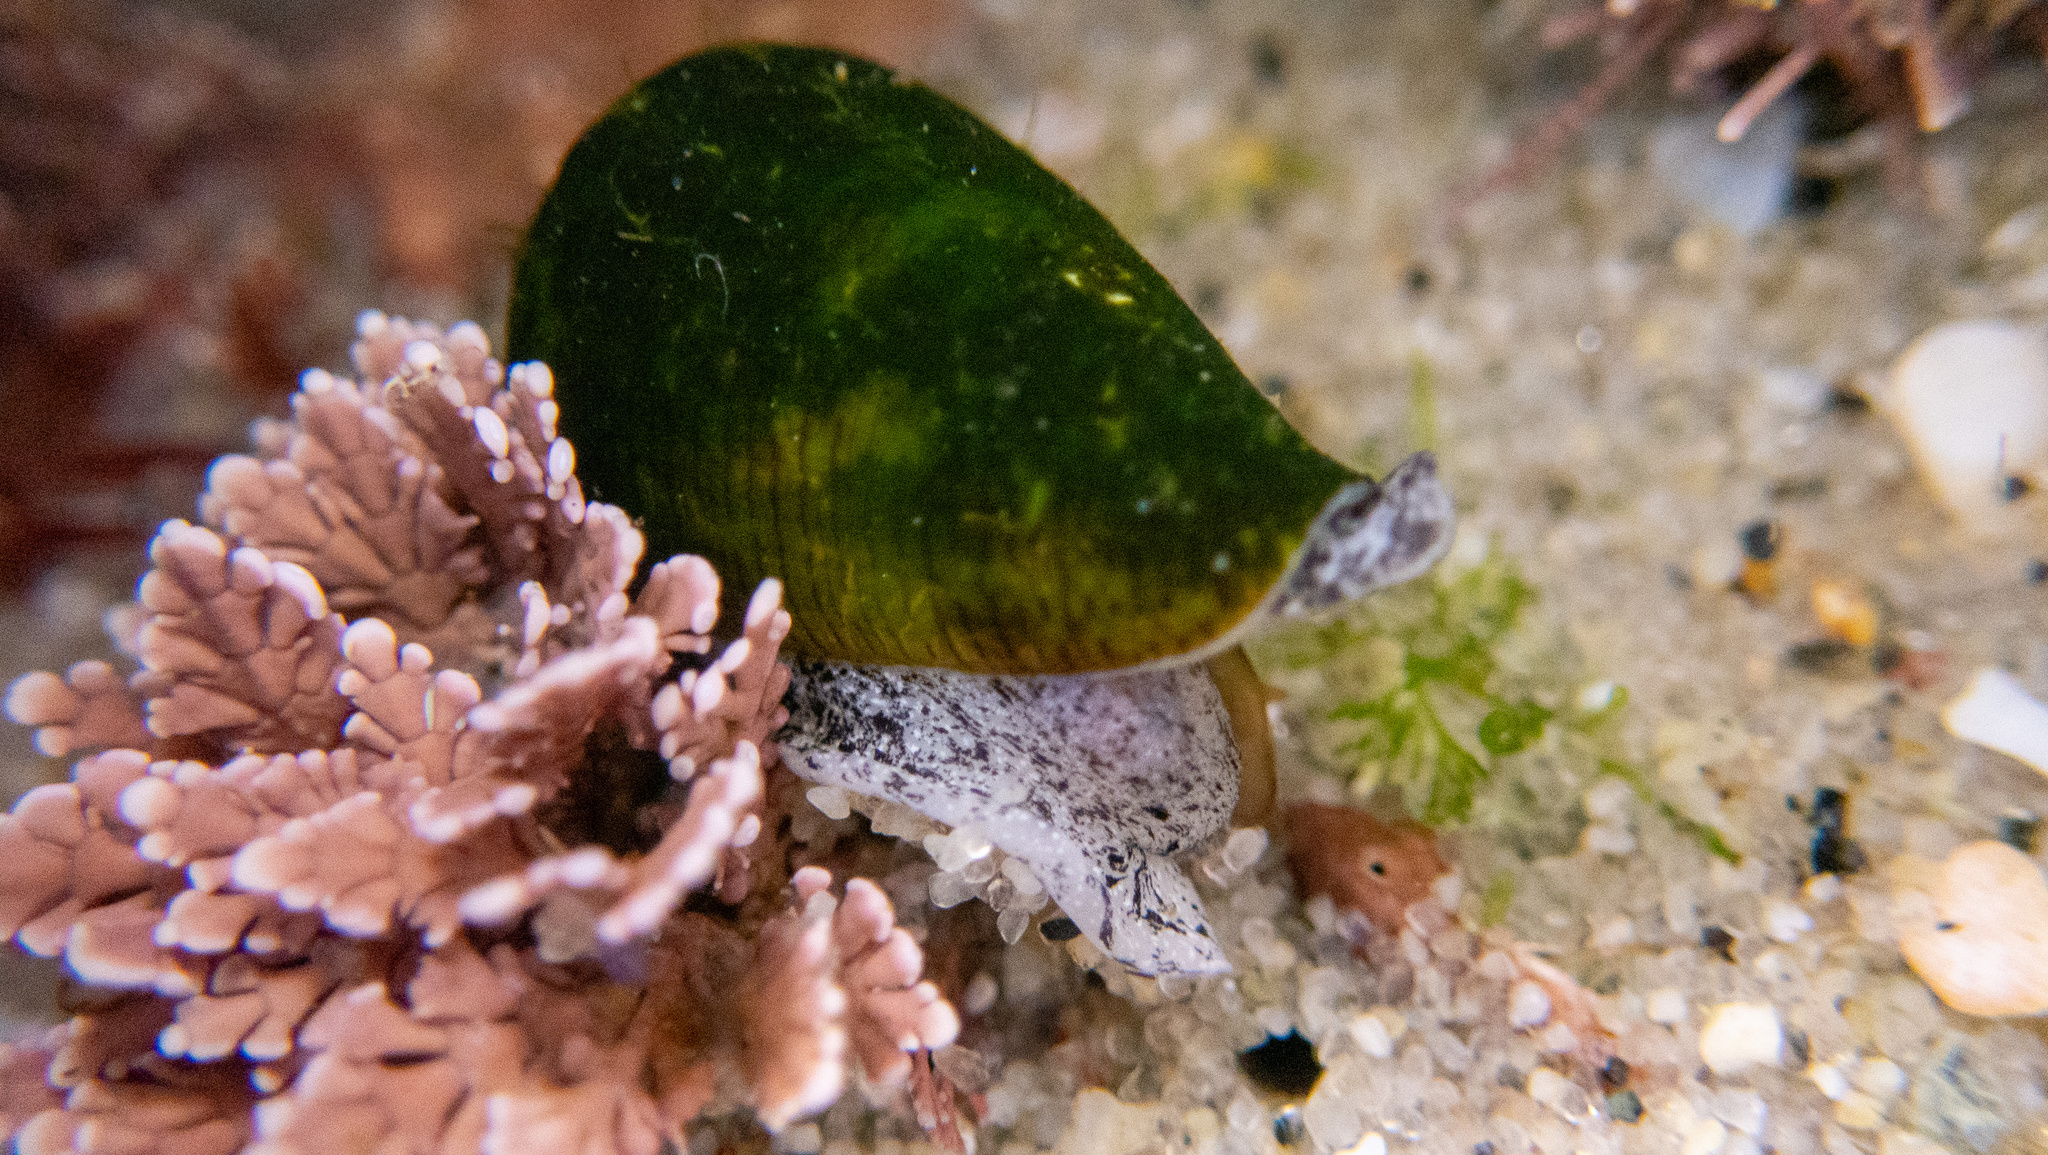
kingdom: Animalia
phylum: Mollusca
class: Gastropoda
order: Neogastropoda
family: Conidae
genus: Californiconus
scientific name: Californiconus californicus
